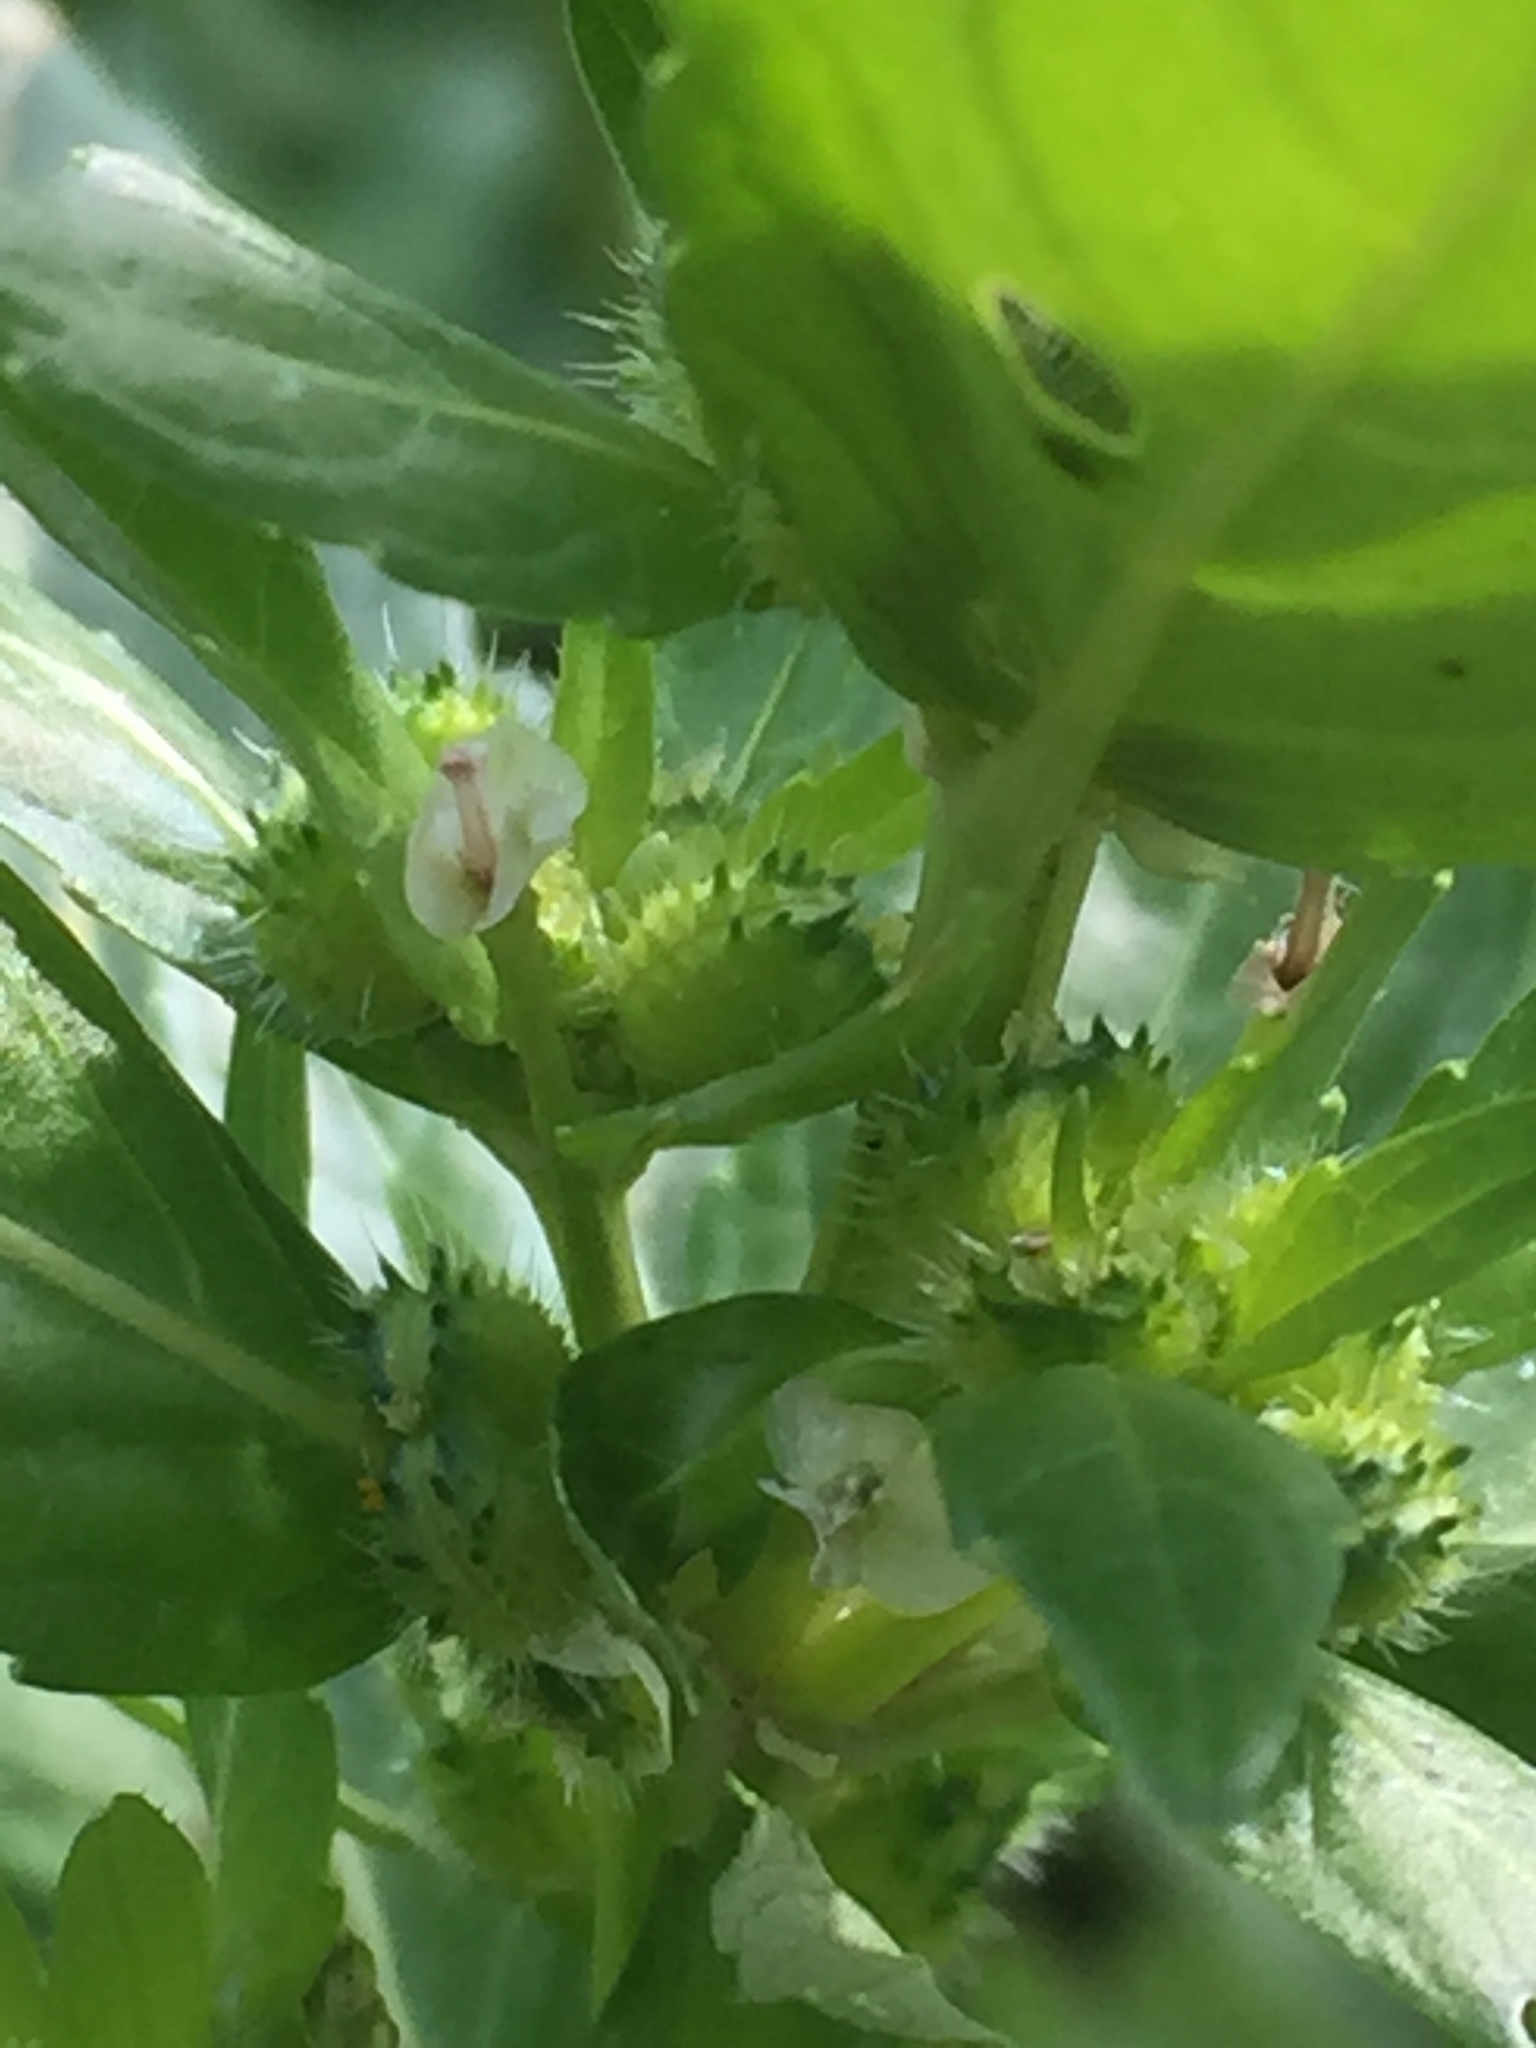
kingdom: Plantae
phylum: Tracheophyta
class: Magnoliopsida
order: Malpighiales
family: Euphorbiaceae
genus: Mercurialis
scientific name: Mercurialis annua
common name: Annual mercury
